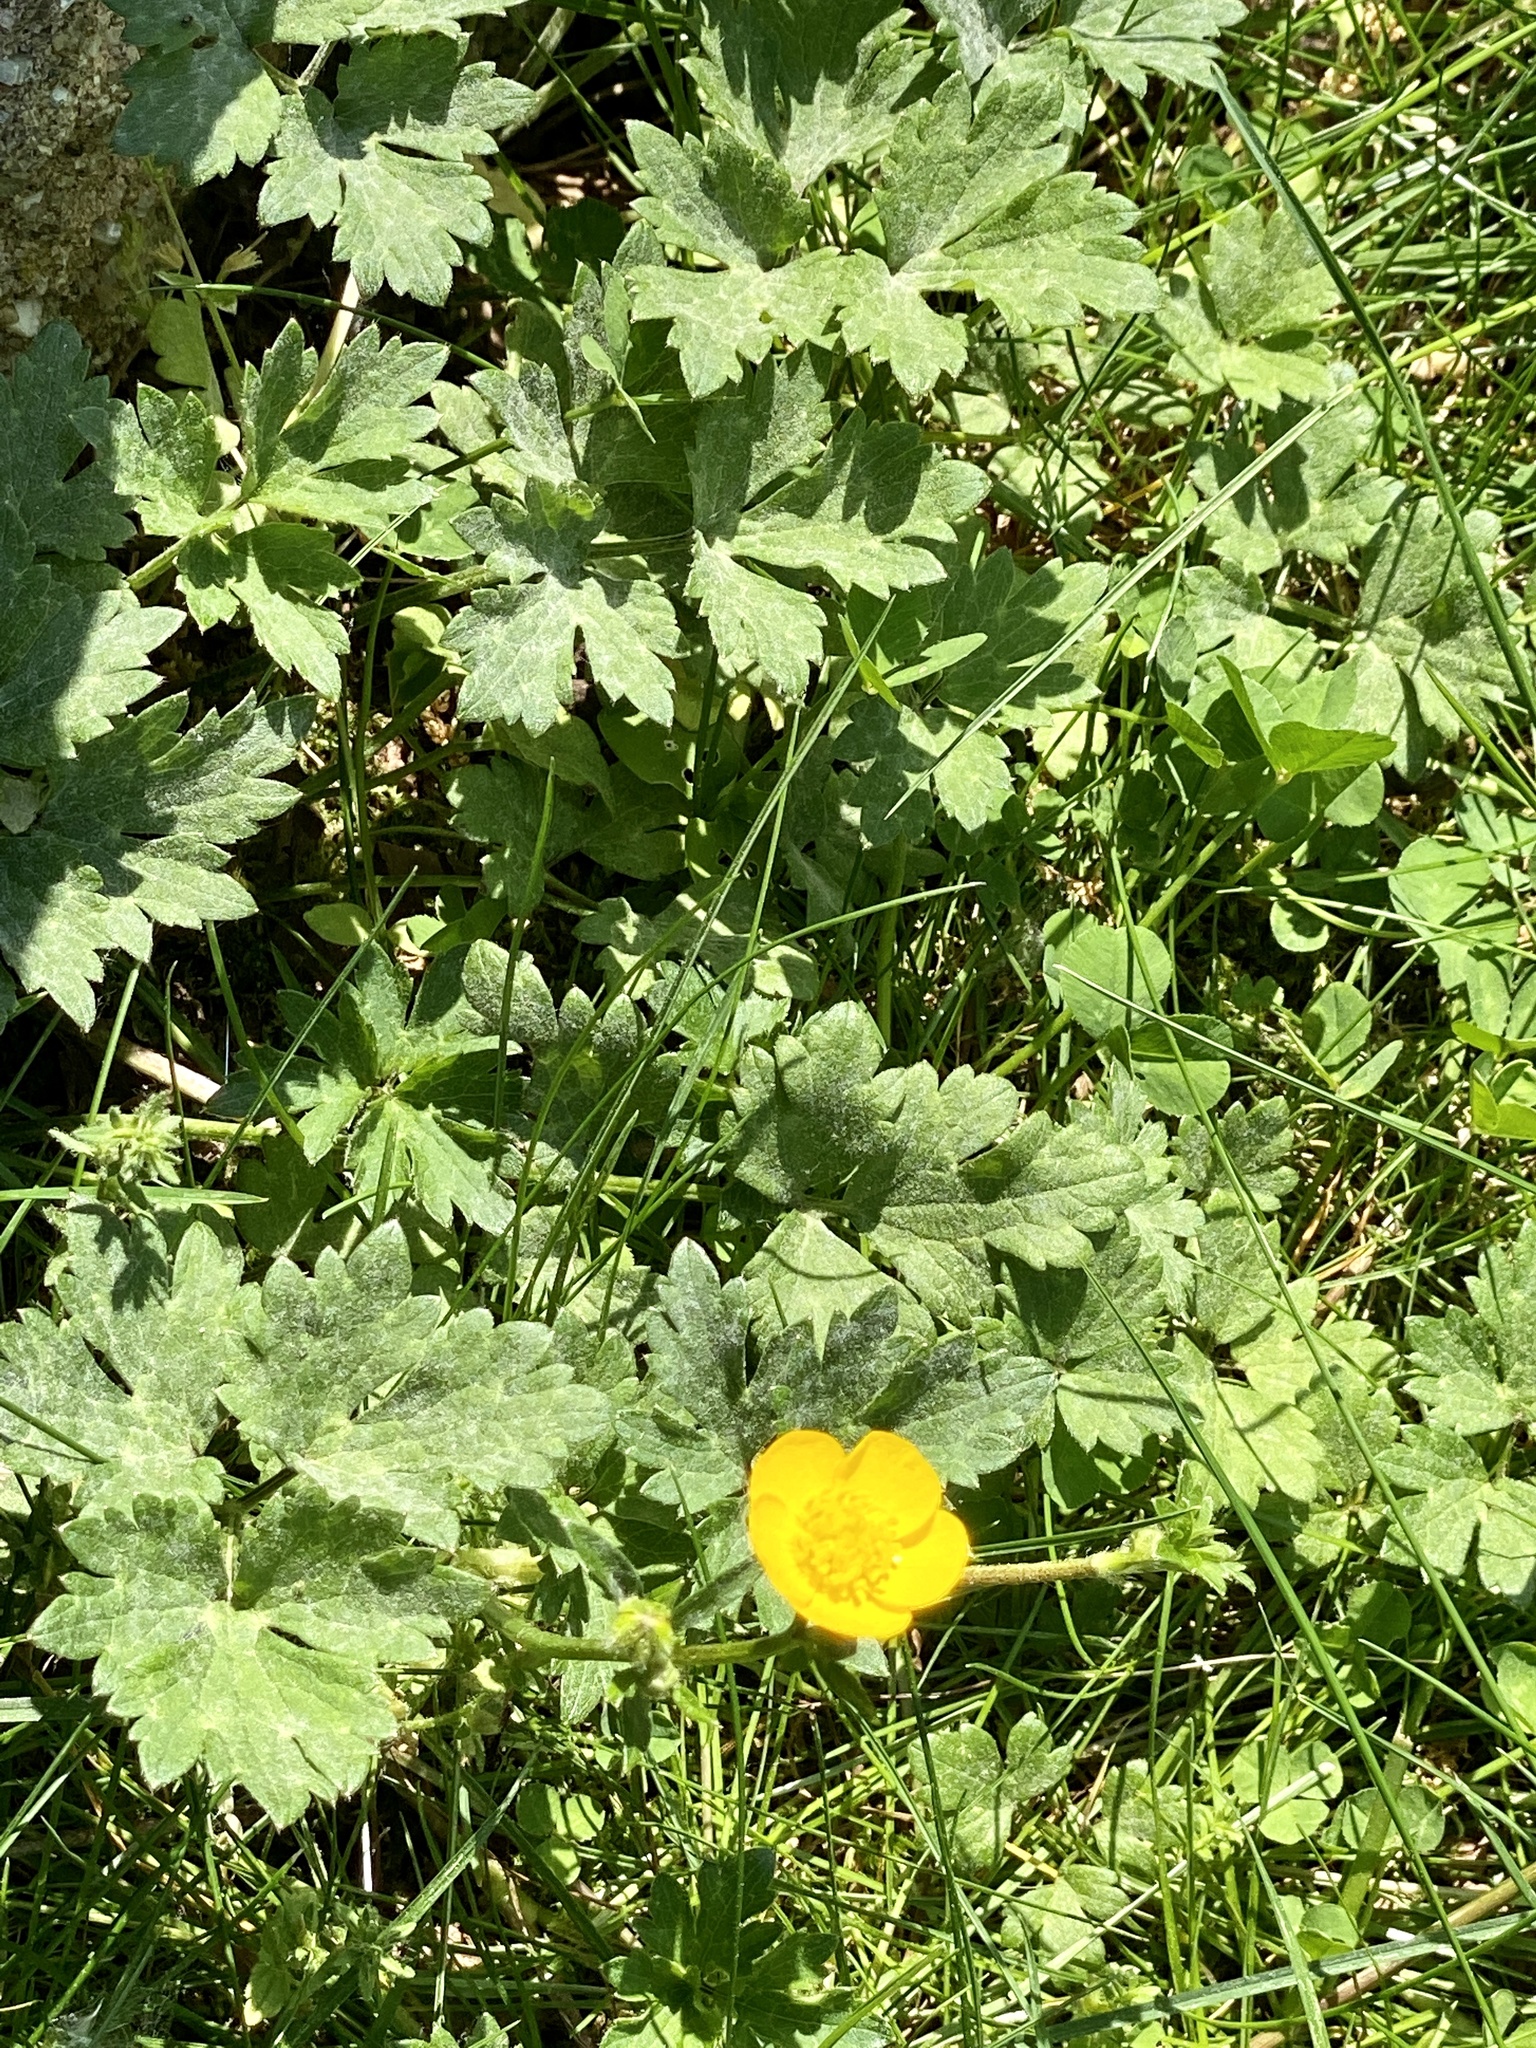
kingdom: Plantae
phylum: Tracheophyta
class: Magnoliopsida
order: Ranunculales
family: Ranunculaceae
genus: Ranunculus
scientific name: Ranunculus repens
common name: Creeping buttercup
